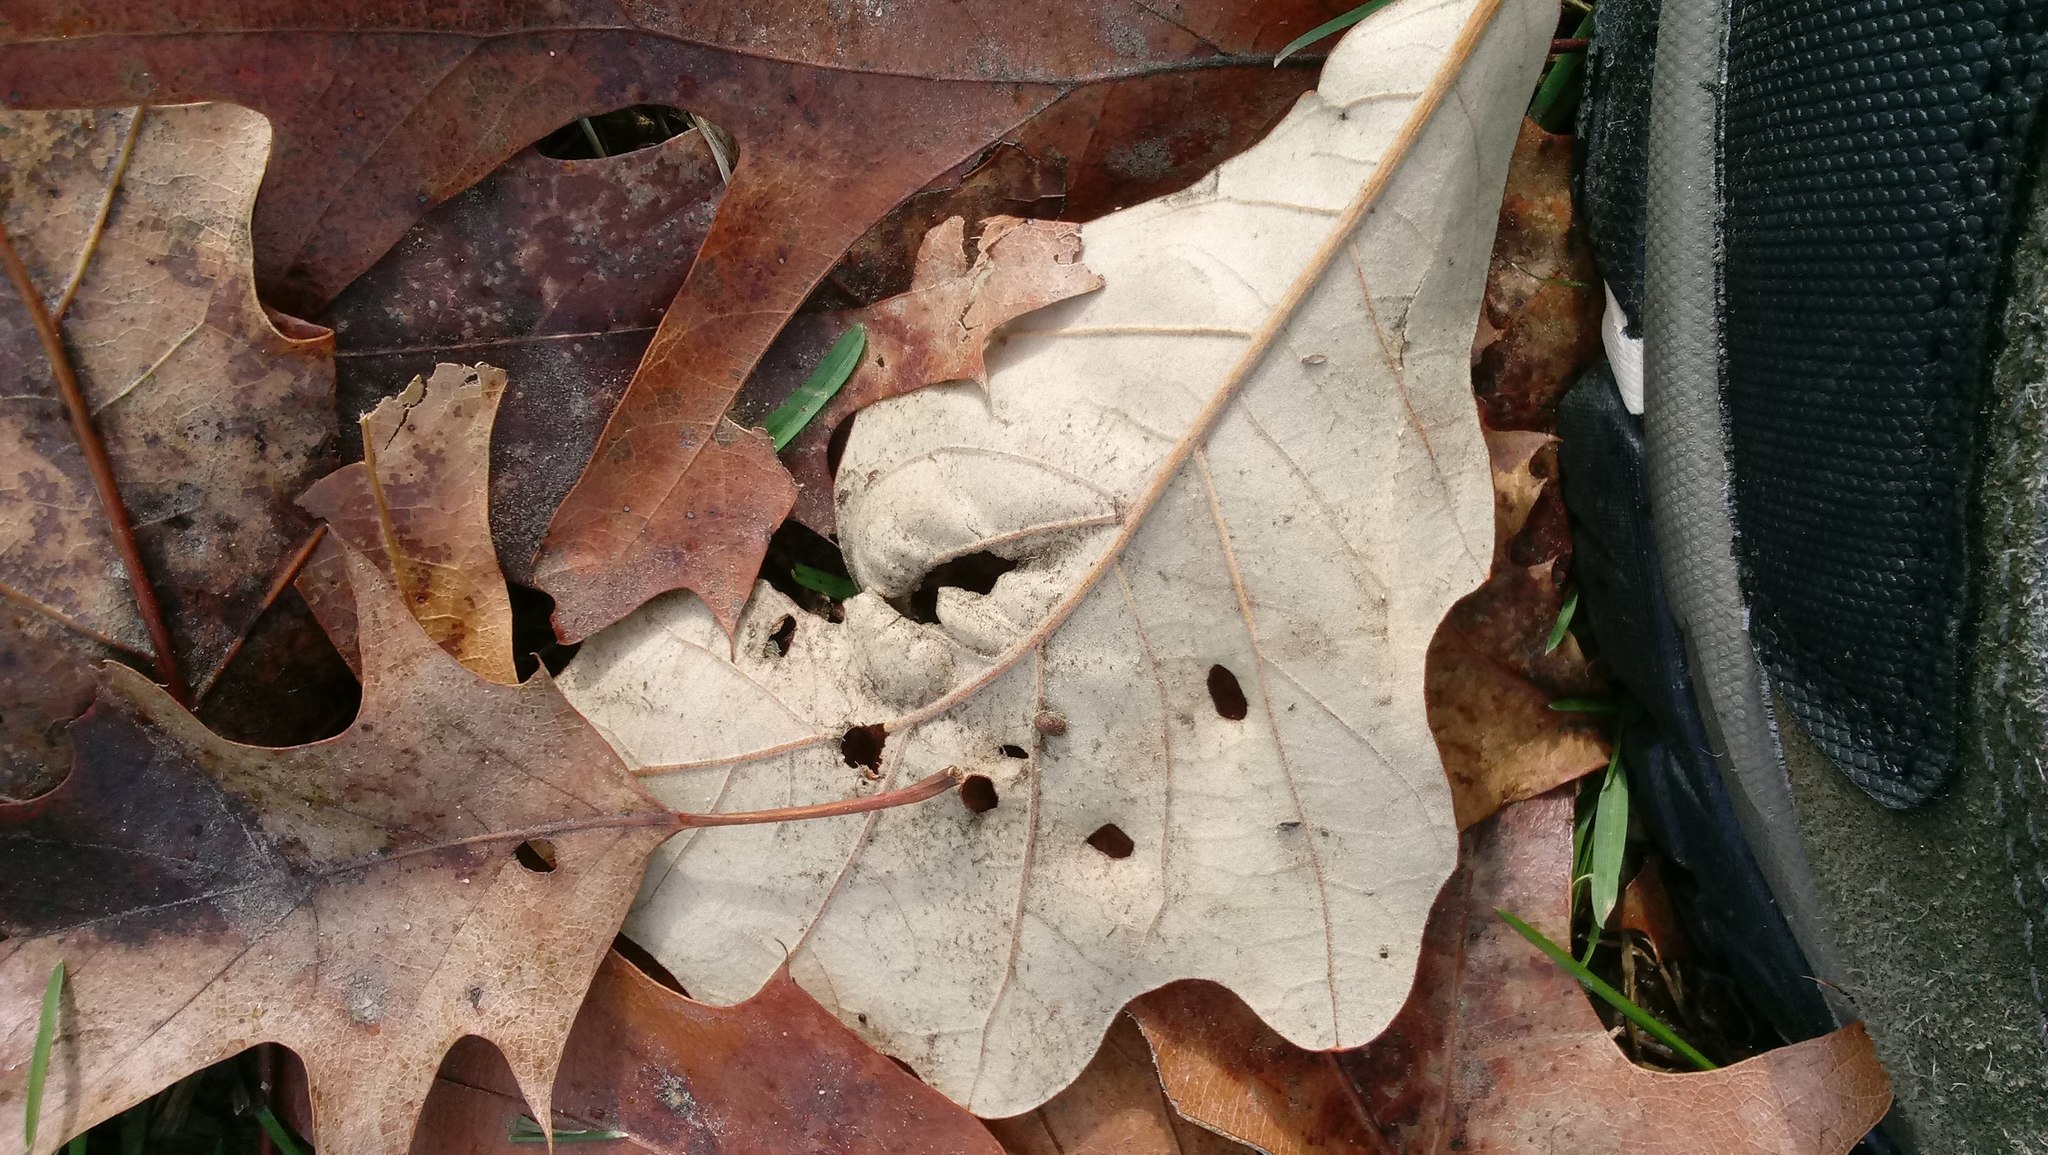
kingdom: Animalia
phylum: Arthropoda
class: Insecta
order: Hymenoptera
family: Cynipidae
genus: Andricus
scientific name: Andricus Druon ignotum
